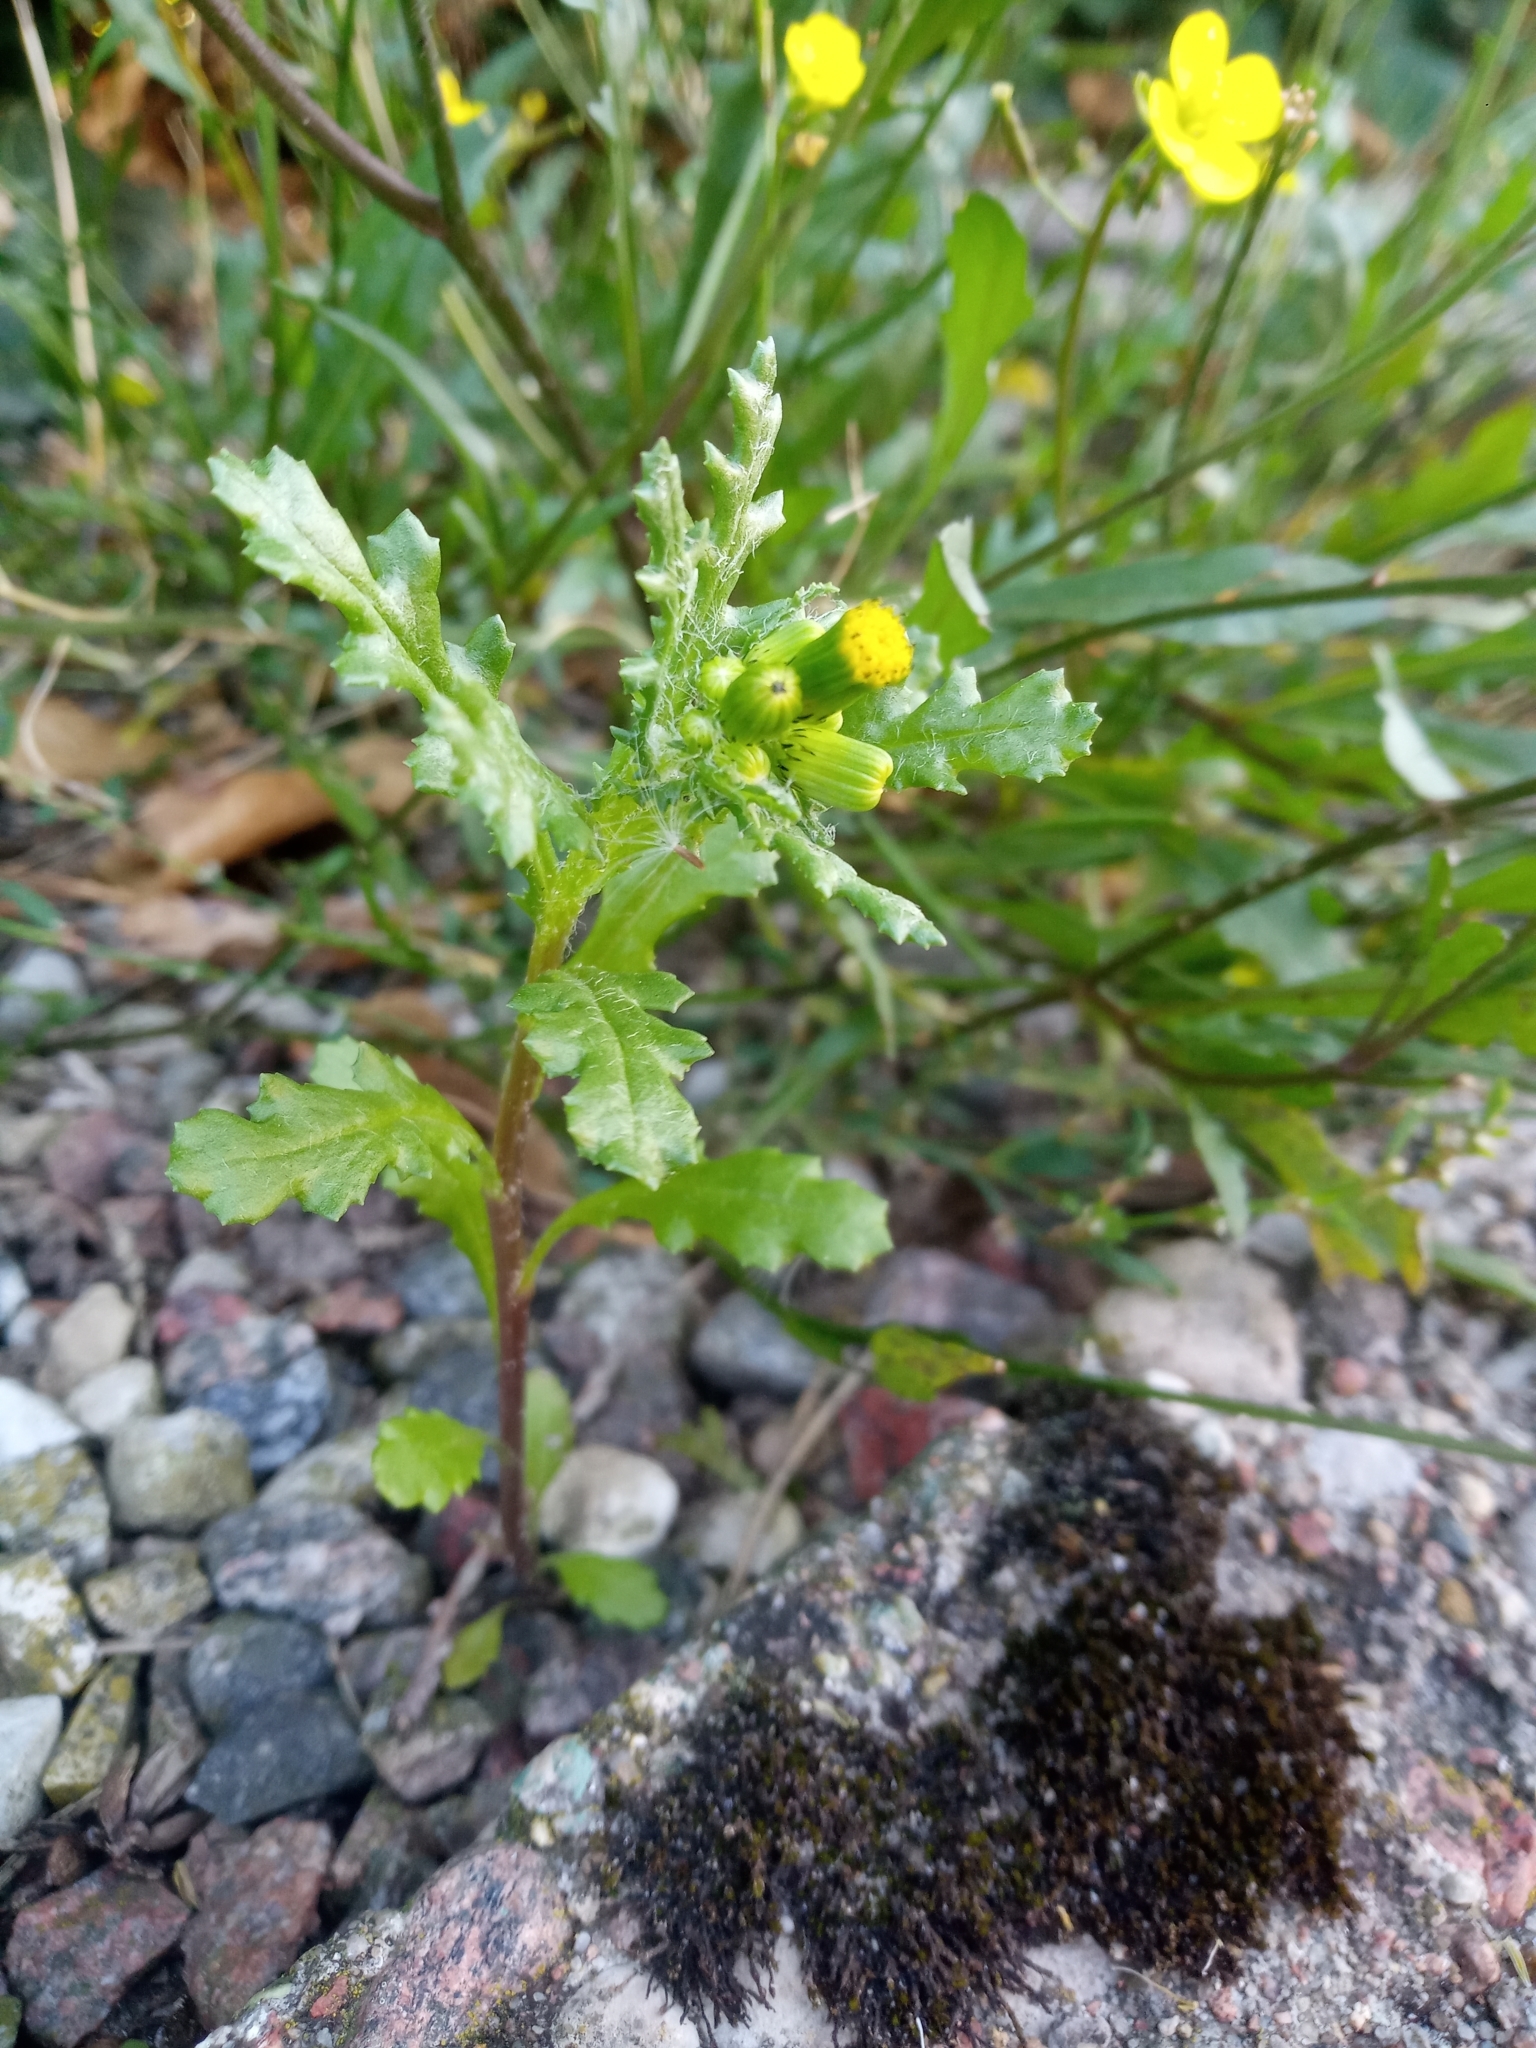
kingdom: Plantae
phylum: Tracheophyta
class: Magnoliopsida
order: Asterales
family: Asteraceae
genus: Senecio
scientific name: Senecio vulgaris
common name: Old-man-in-the-spring
